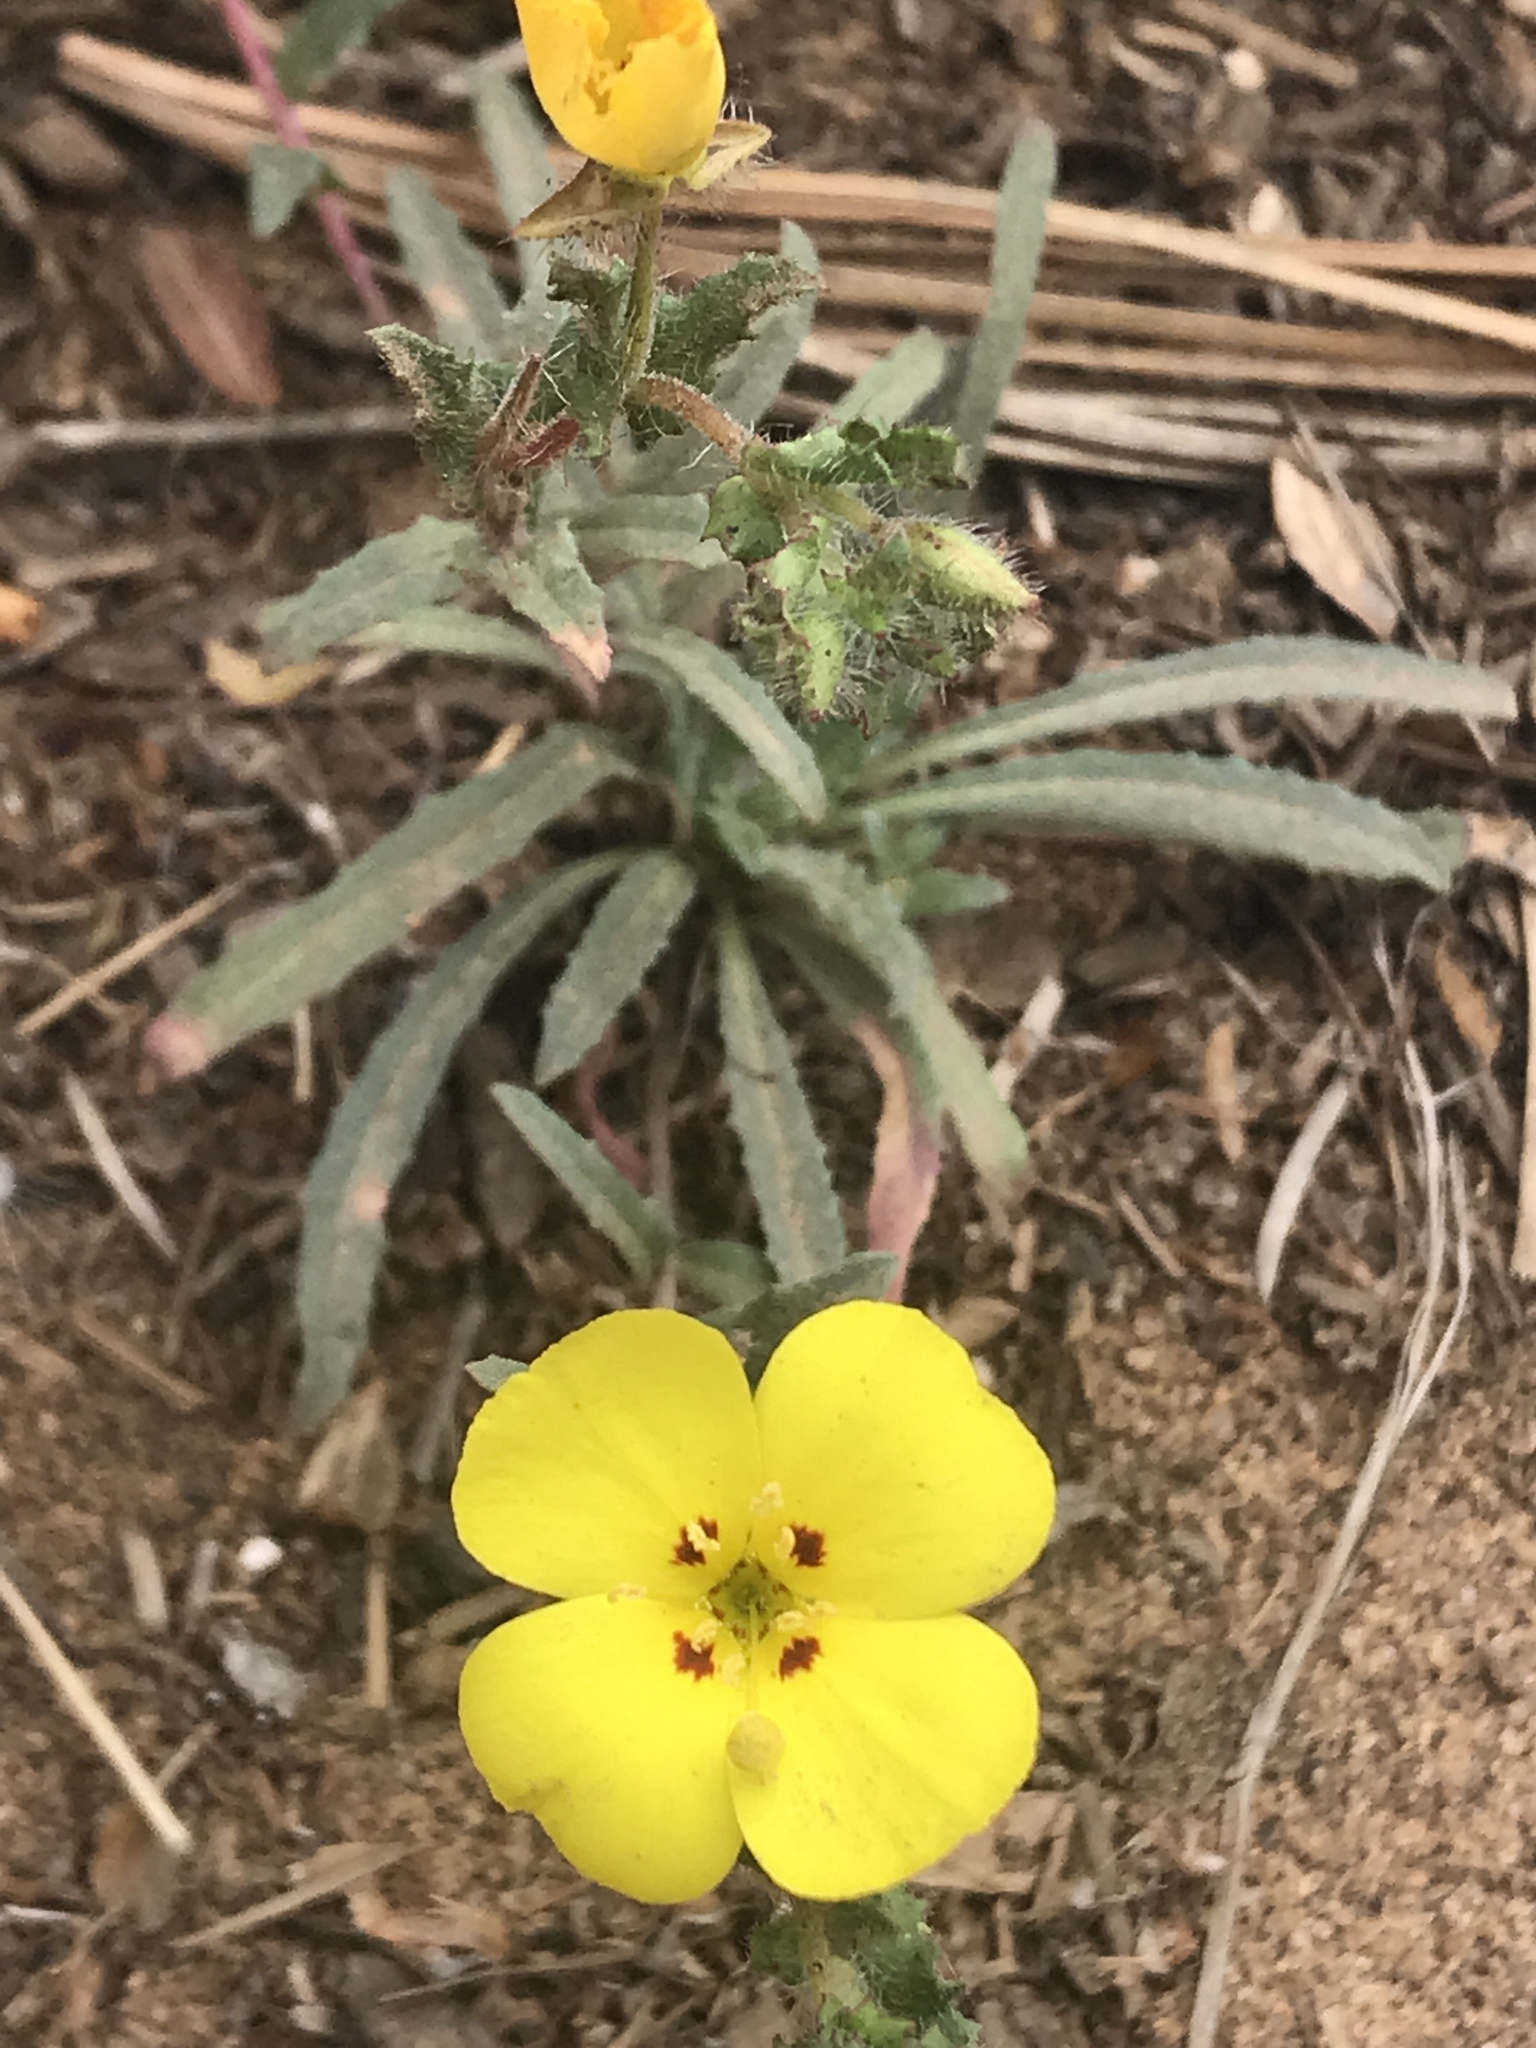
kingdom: Plantae
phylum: Tracheophyta
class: Magnoliopsida
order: Myrtales
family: Onagraceae
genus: Camissoniopsis
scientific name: Camissoniopsis bistorta
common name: Southern suncup
